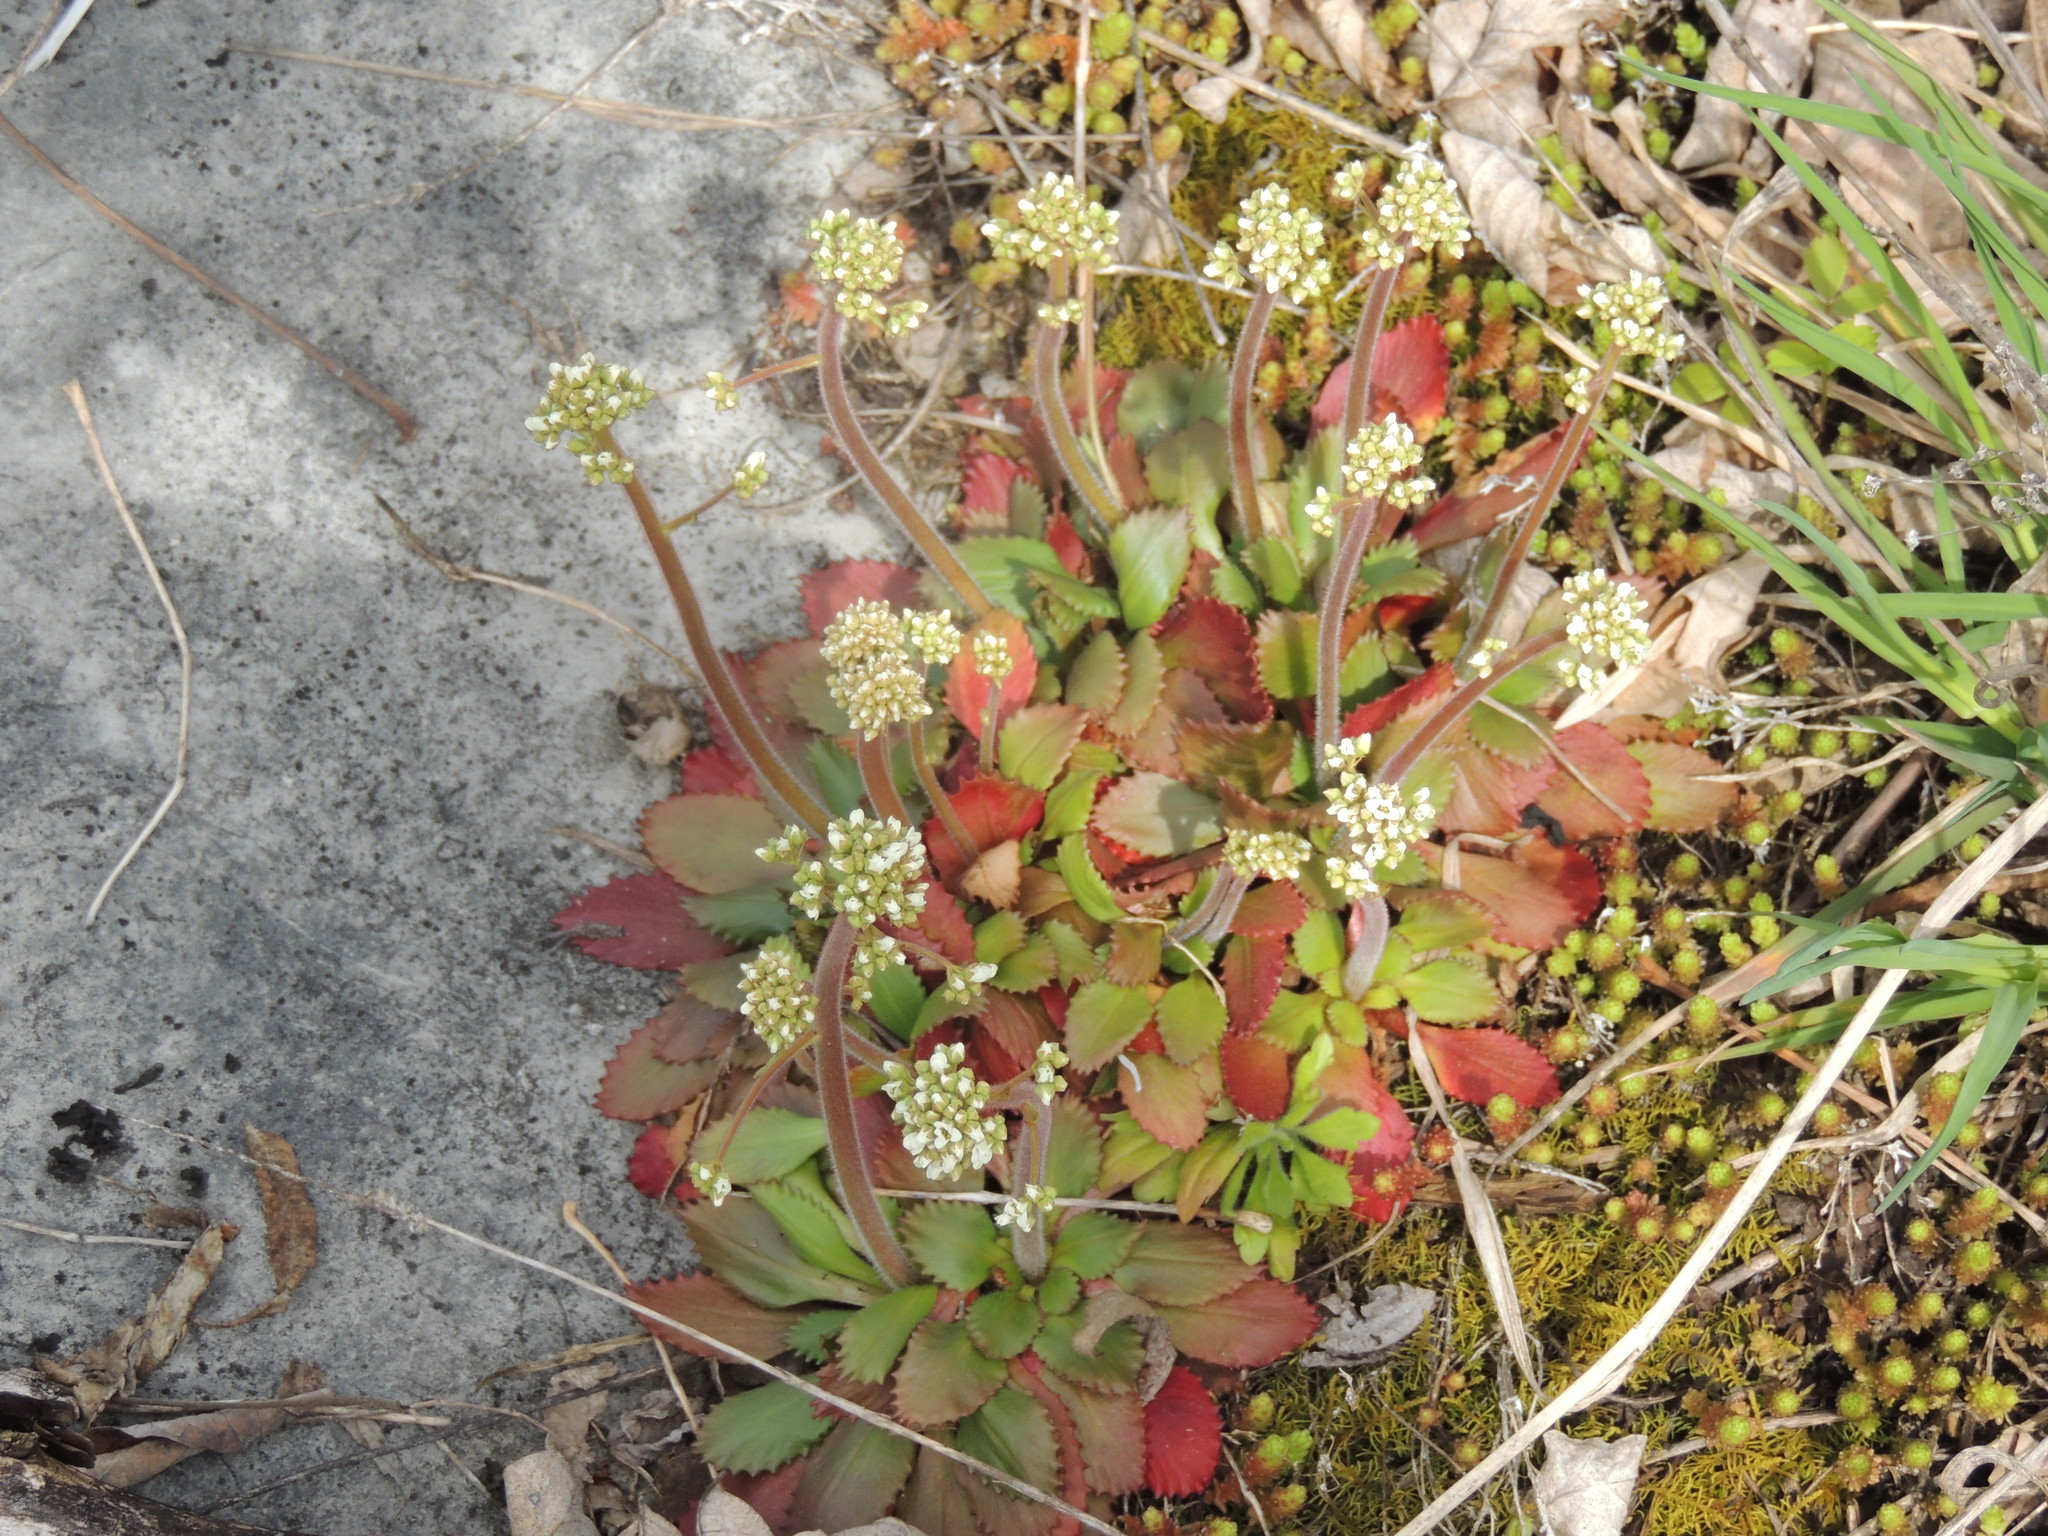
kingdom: Plantae
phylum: Tracheophyta
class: Magnoliopsida
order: Saxifragales
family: Saxifragaceae
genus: Micranthes
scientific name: Micranthes virginiensis
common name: Early saxifrage
